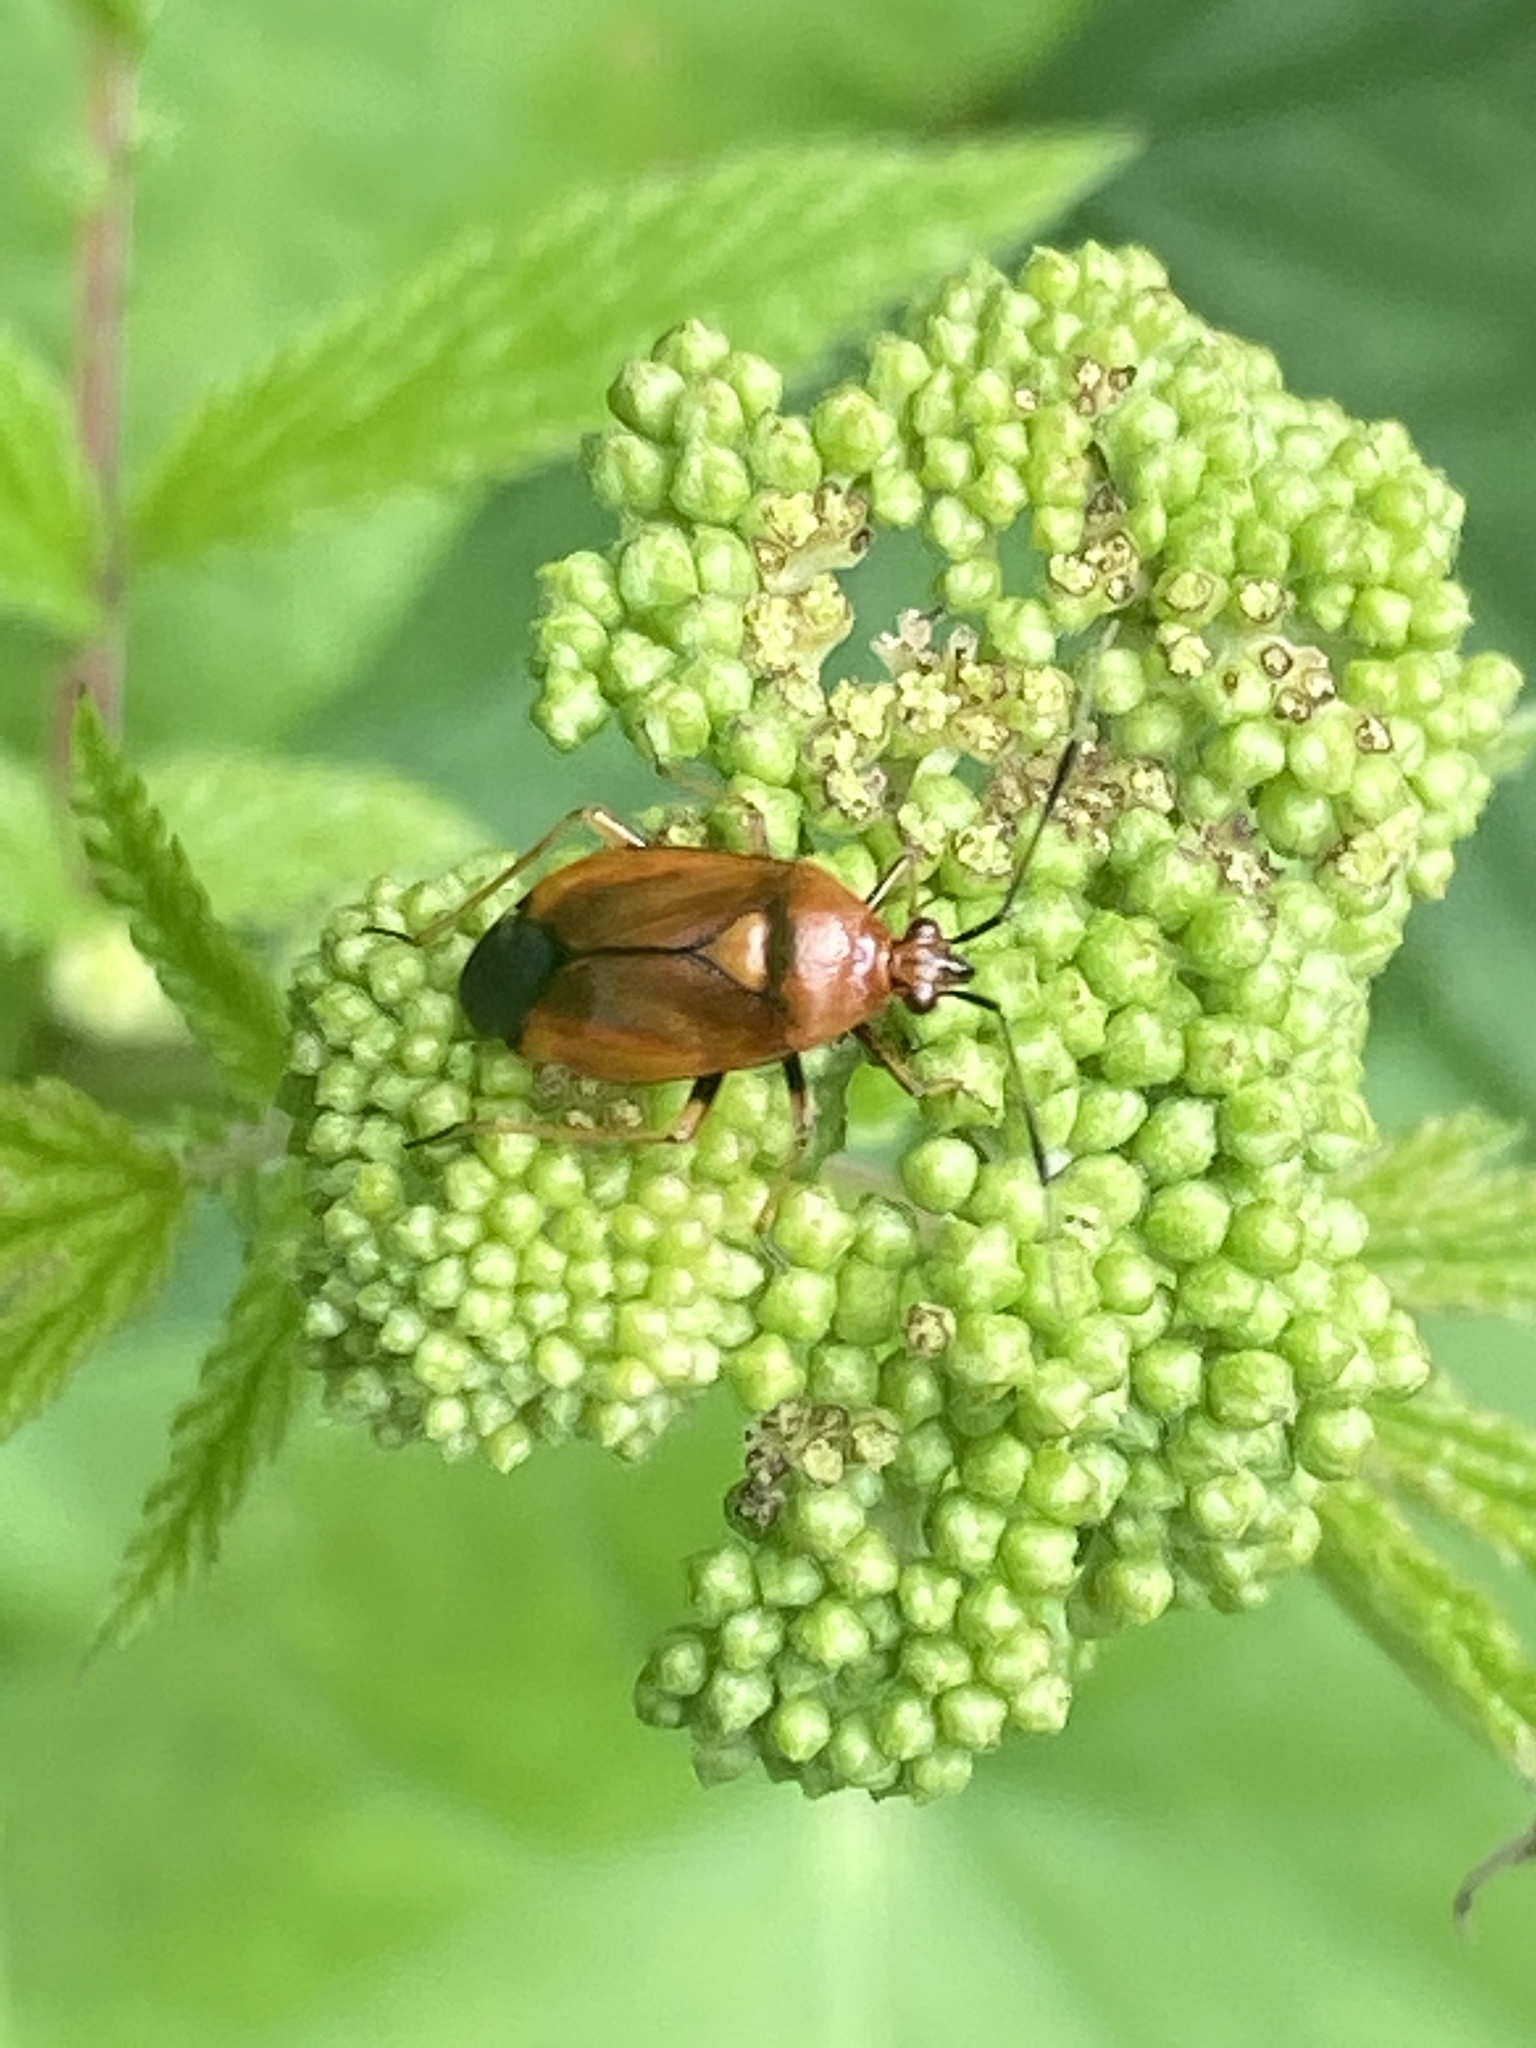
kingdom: Animalia
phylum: Arthropoda
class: Insecta
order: Hemiptera
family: Miridae
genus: Deraeocoris
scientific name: Deraeocoris ruber
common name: Plant bug
